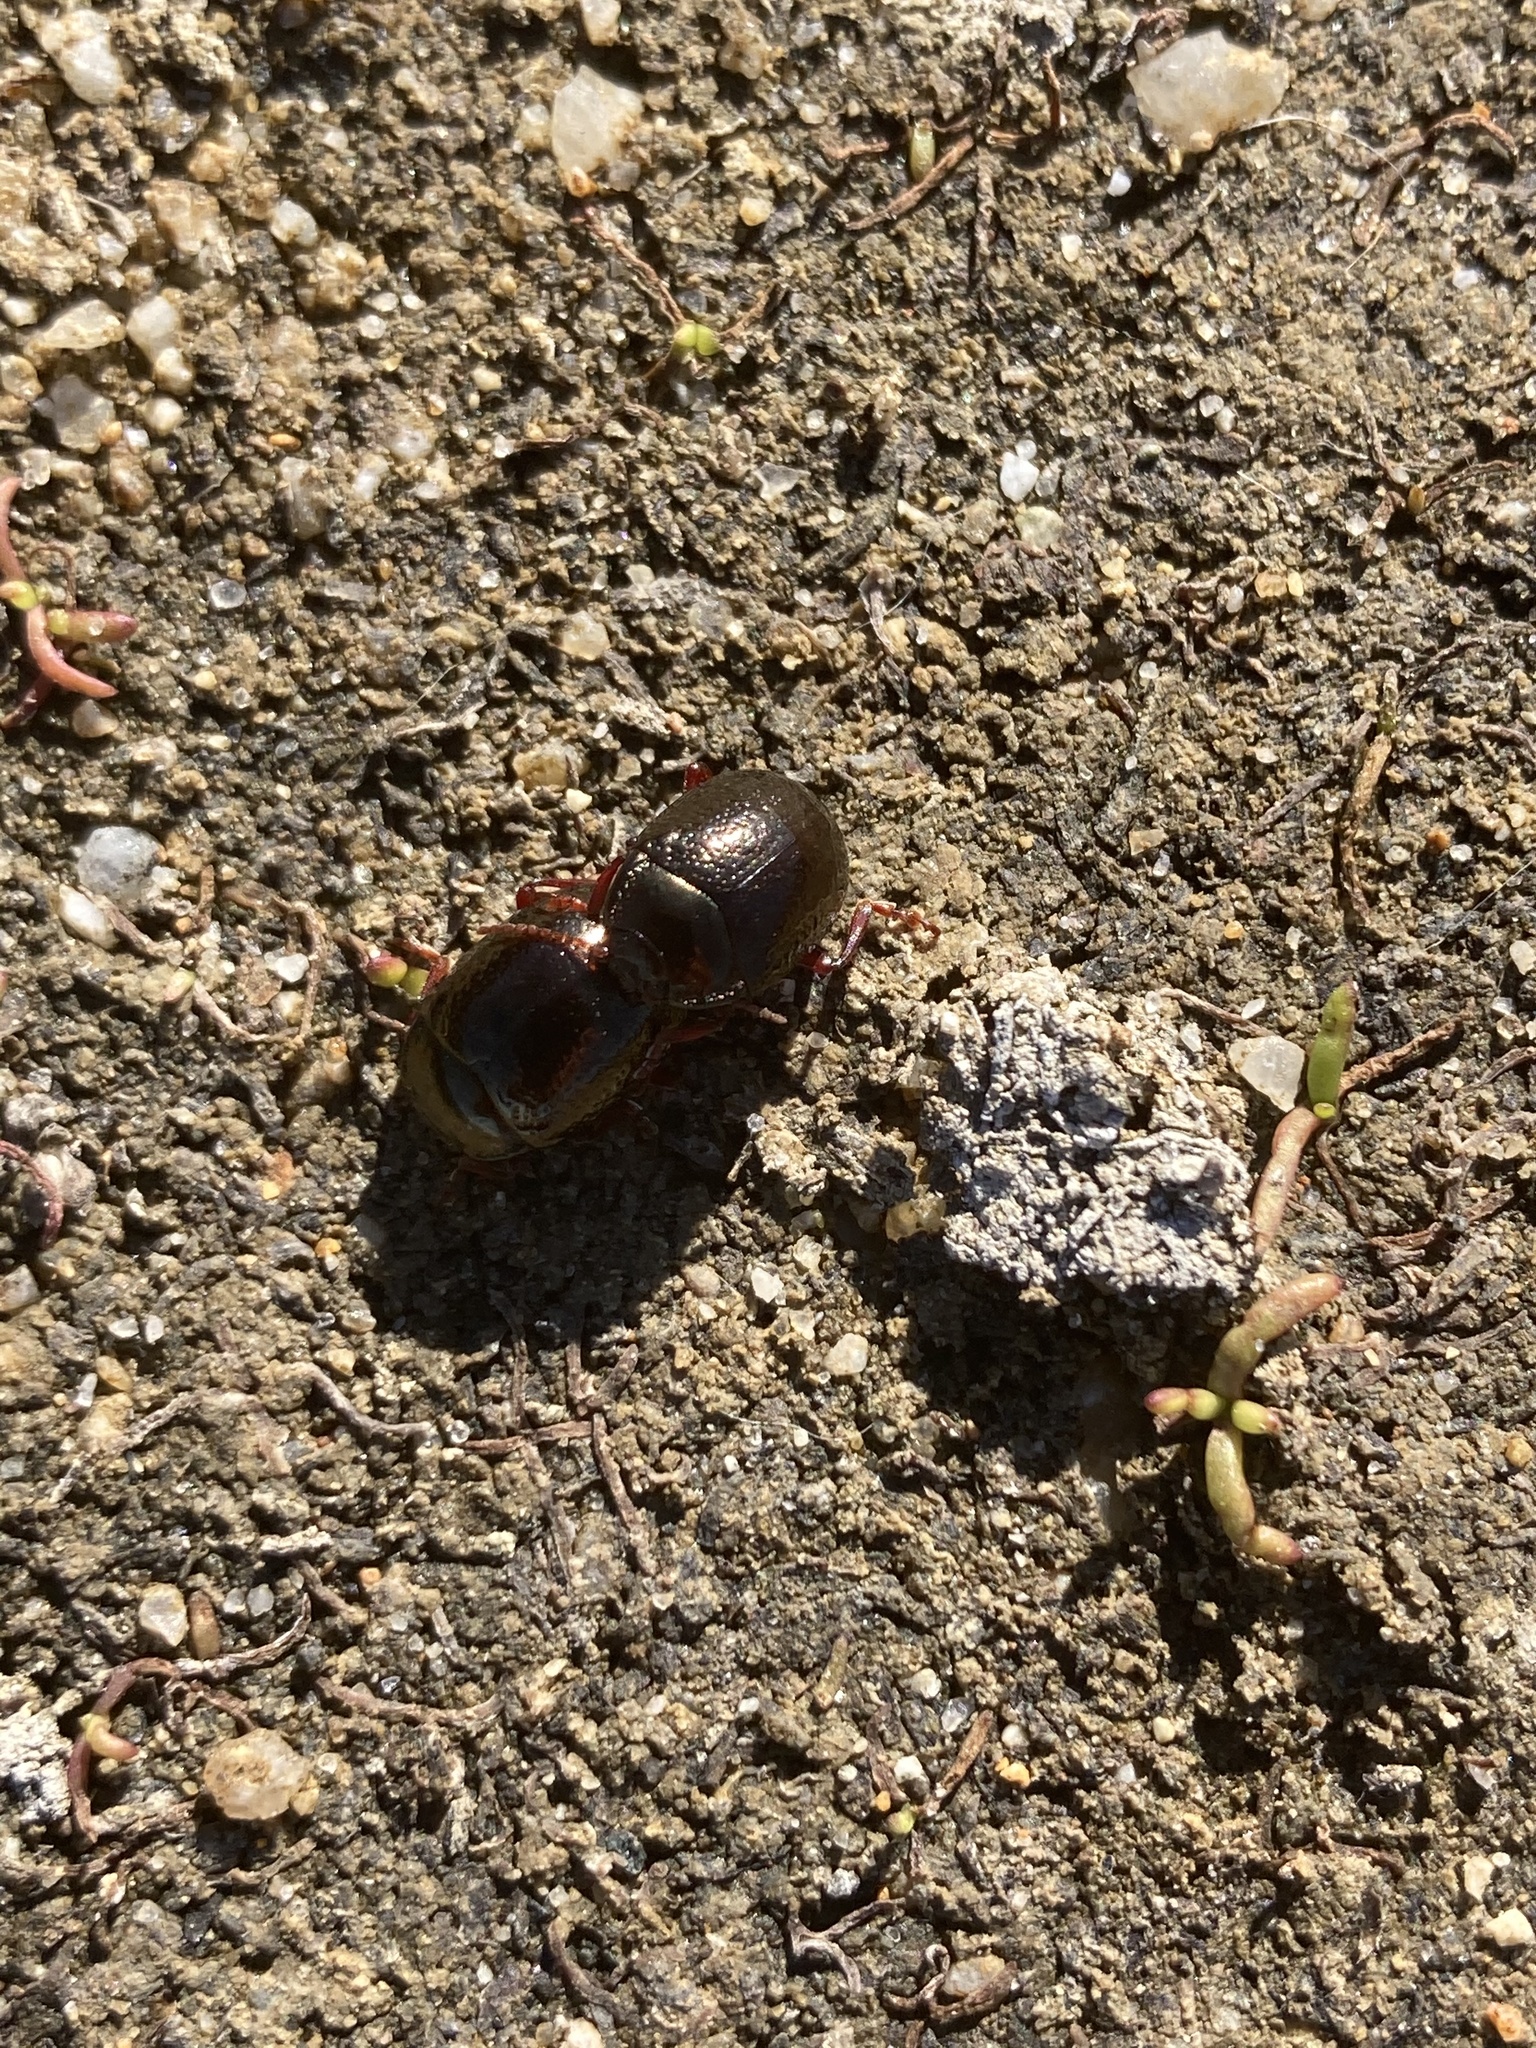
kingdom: Animalia
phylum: Arthropoda
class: Insecta
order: Coleoptera
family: Chrysomelidae
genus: Chrysolina
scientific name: Chrysolina bankii
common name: Leaf beetle
